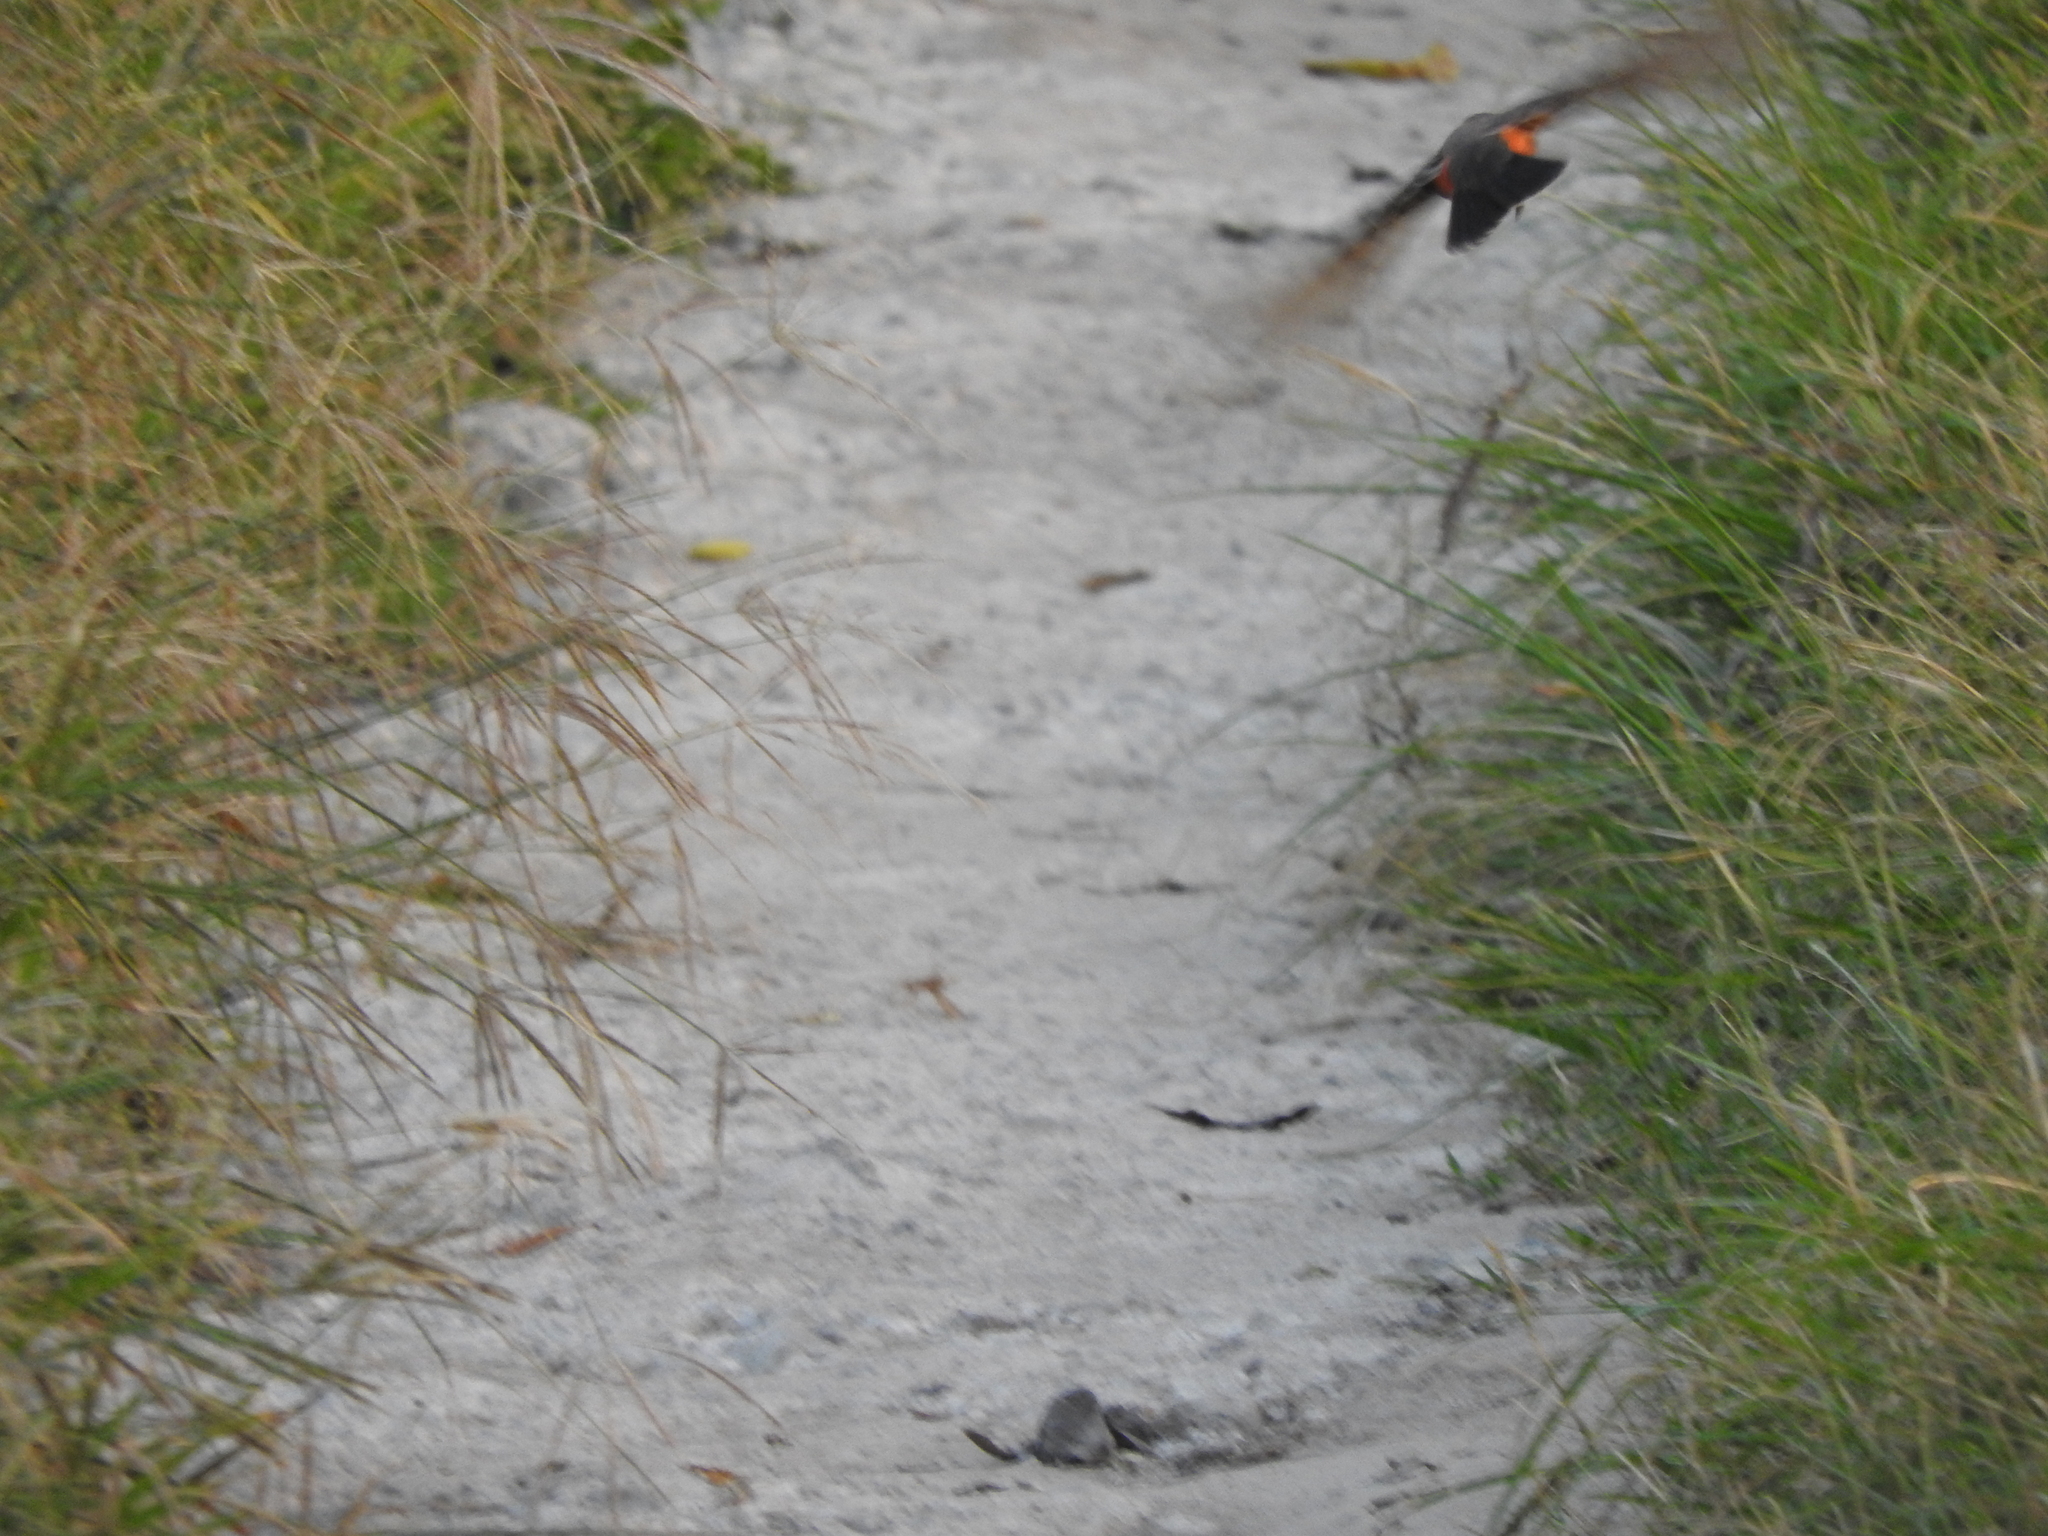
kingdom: Animalia
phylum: Chordata
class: Aves
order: Passeriformes
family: Tyrannidae
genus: Pyrocephalus
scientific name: Pyrocephalus rubinus
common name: Vermilion flycatcher
